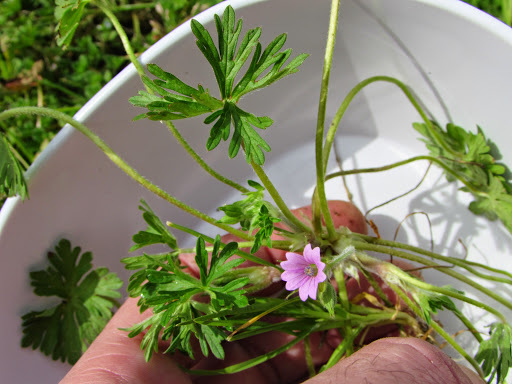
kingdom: Plantae
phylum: Tracheophyta
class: Magnoliopsida
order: Geraniales
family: Geraniaceae
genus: Geranium
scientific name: Geranium dissectum
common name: Cut-leaved crane's-bill
